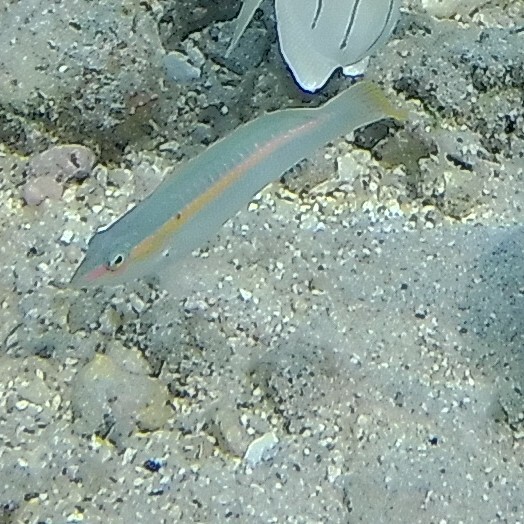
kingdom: Animalia
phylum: Chordata
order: Perciformes
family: Labridae
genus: Halichoeres
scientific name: Halichoeres scapularis
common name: Brownbanded wrasse
